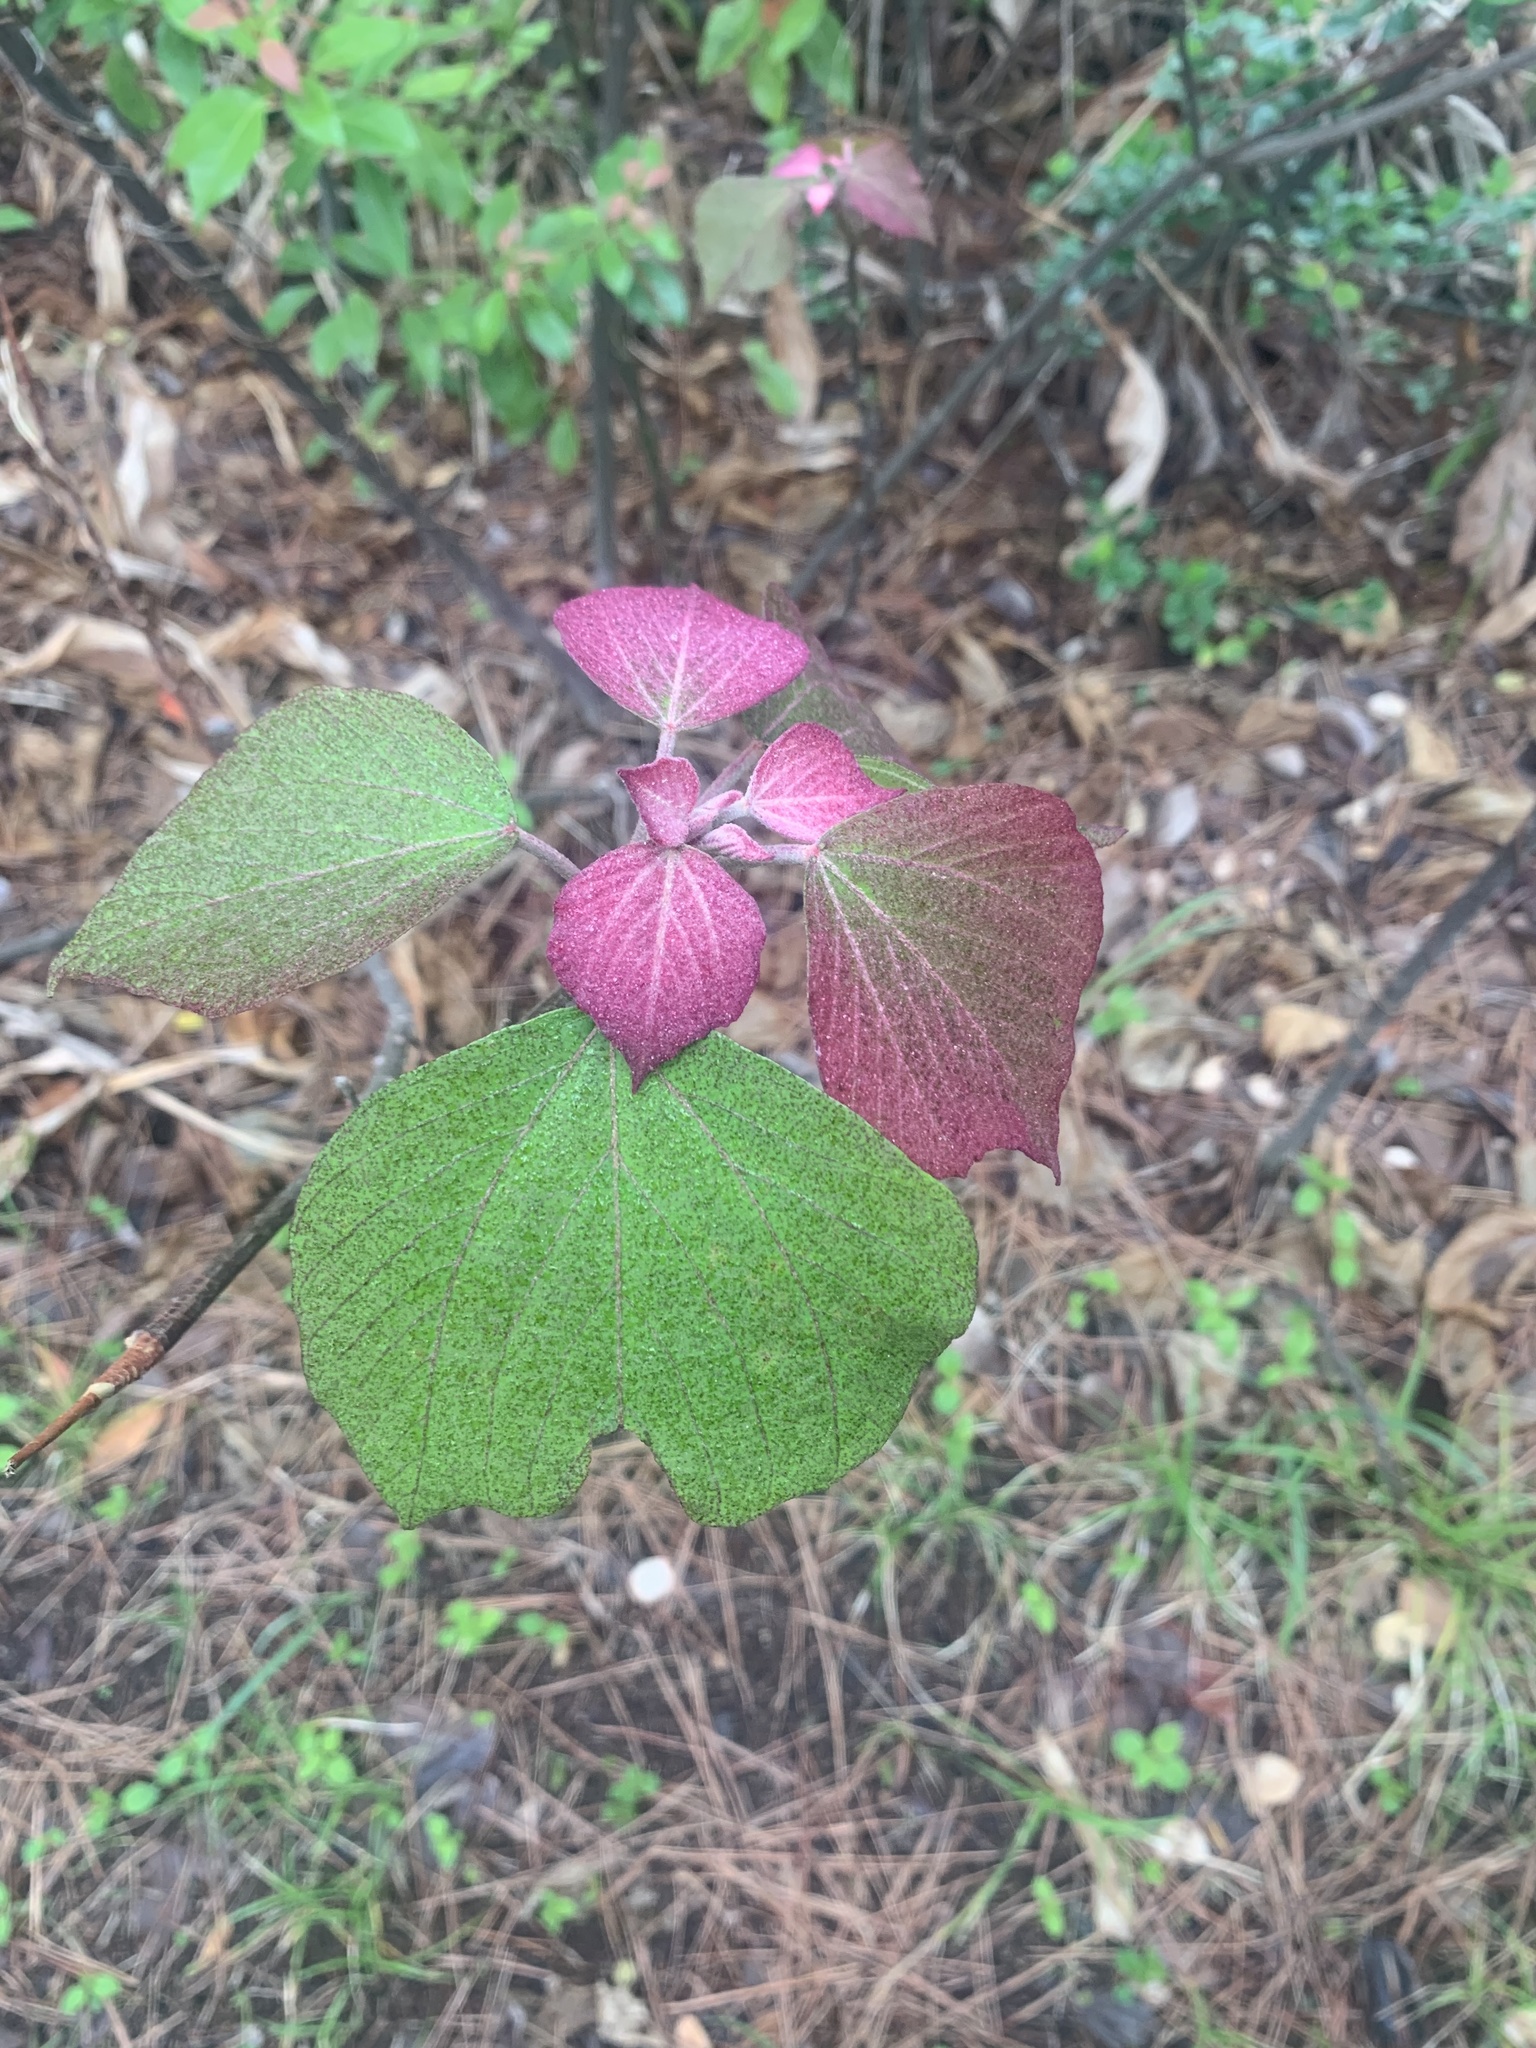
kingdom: Plantae
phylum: Tracheophyta
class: Magnoliopsida
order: Malpighiales
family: Euphorbiaceae
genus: Mallotus
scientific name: Mallotus japonicus
